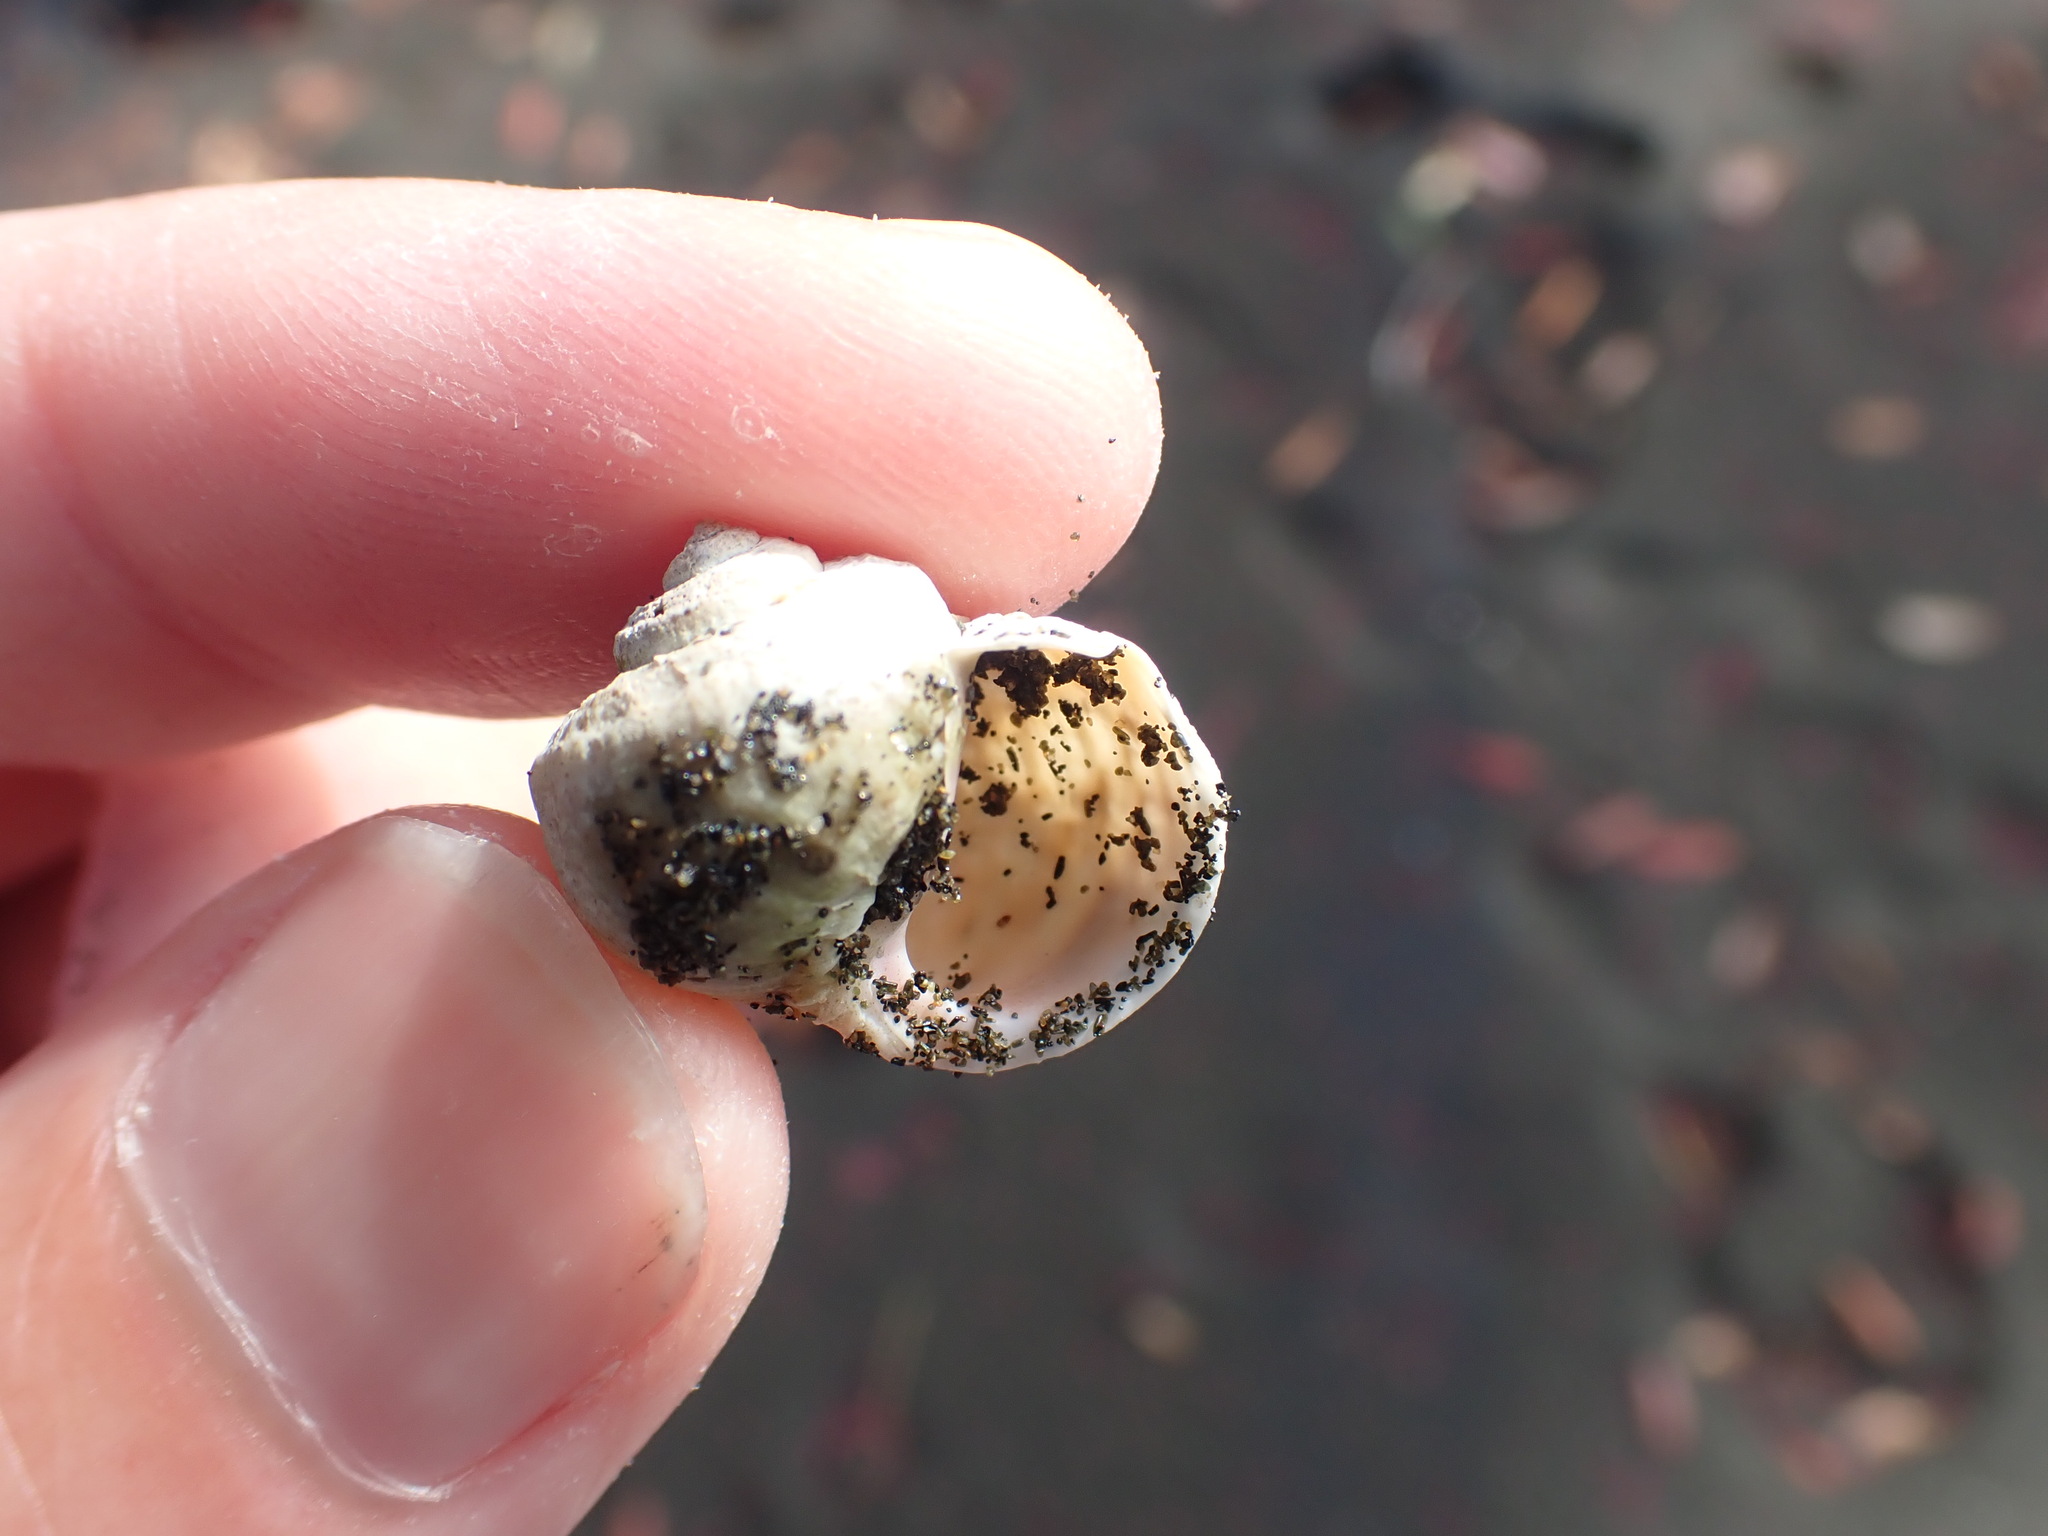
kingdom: Animalia
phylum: Mollusca
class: Gastropoda
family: Amphibolidae
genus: Amphibola
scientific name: Amphibola crenata
